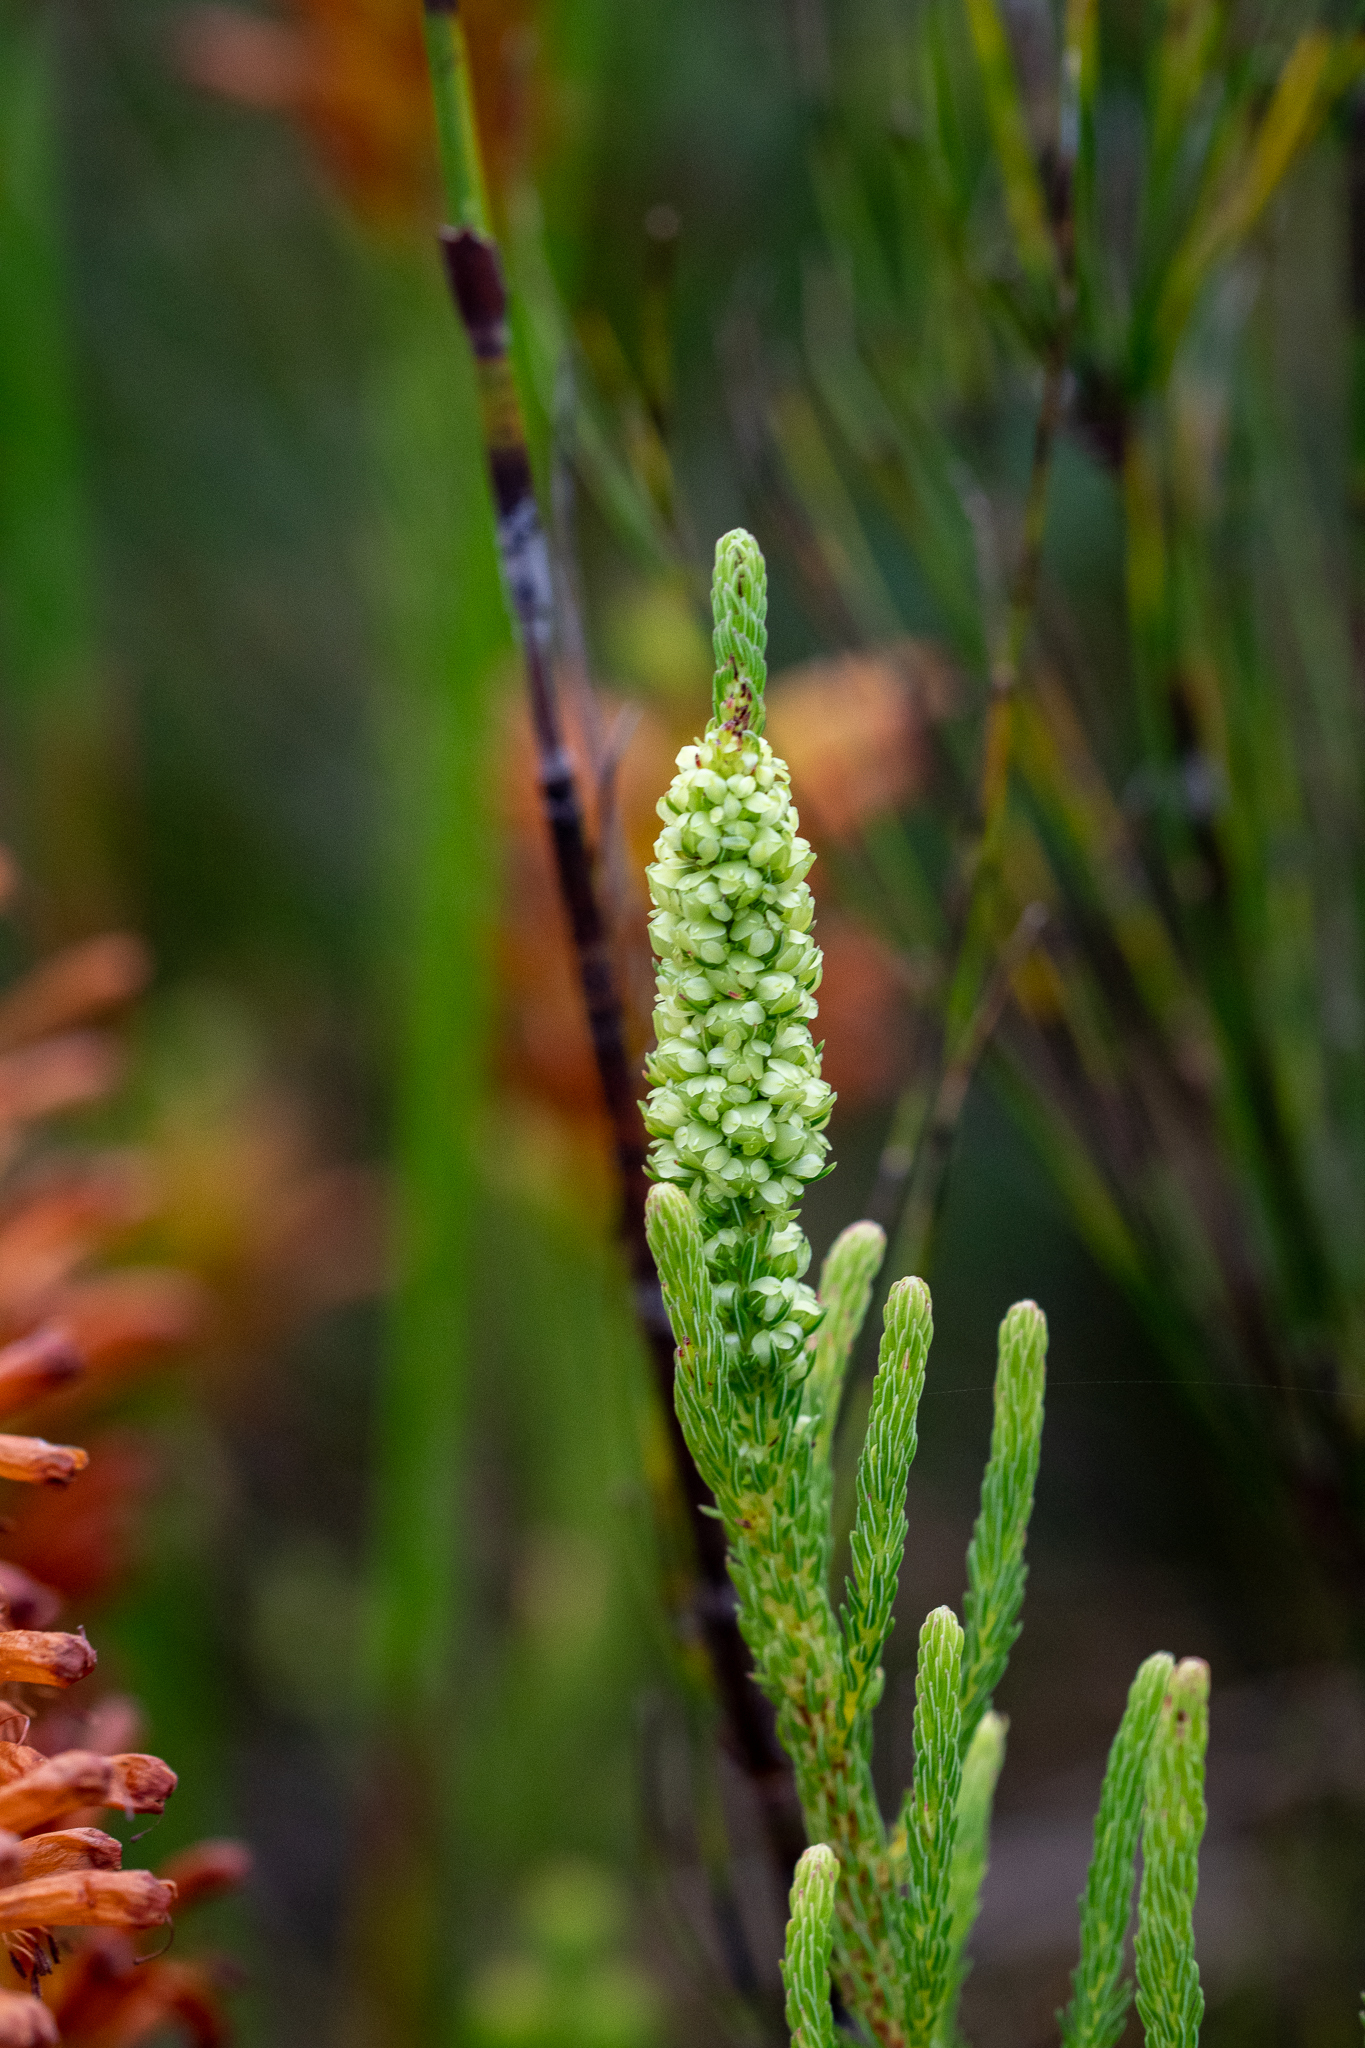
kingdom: Plantae
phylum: Tracheophyta
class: Magnoliopsida
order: Ericales
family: Ericaceae
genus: Erica
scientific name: Erica sessiliflora
